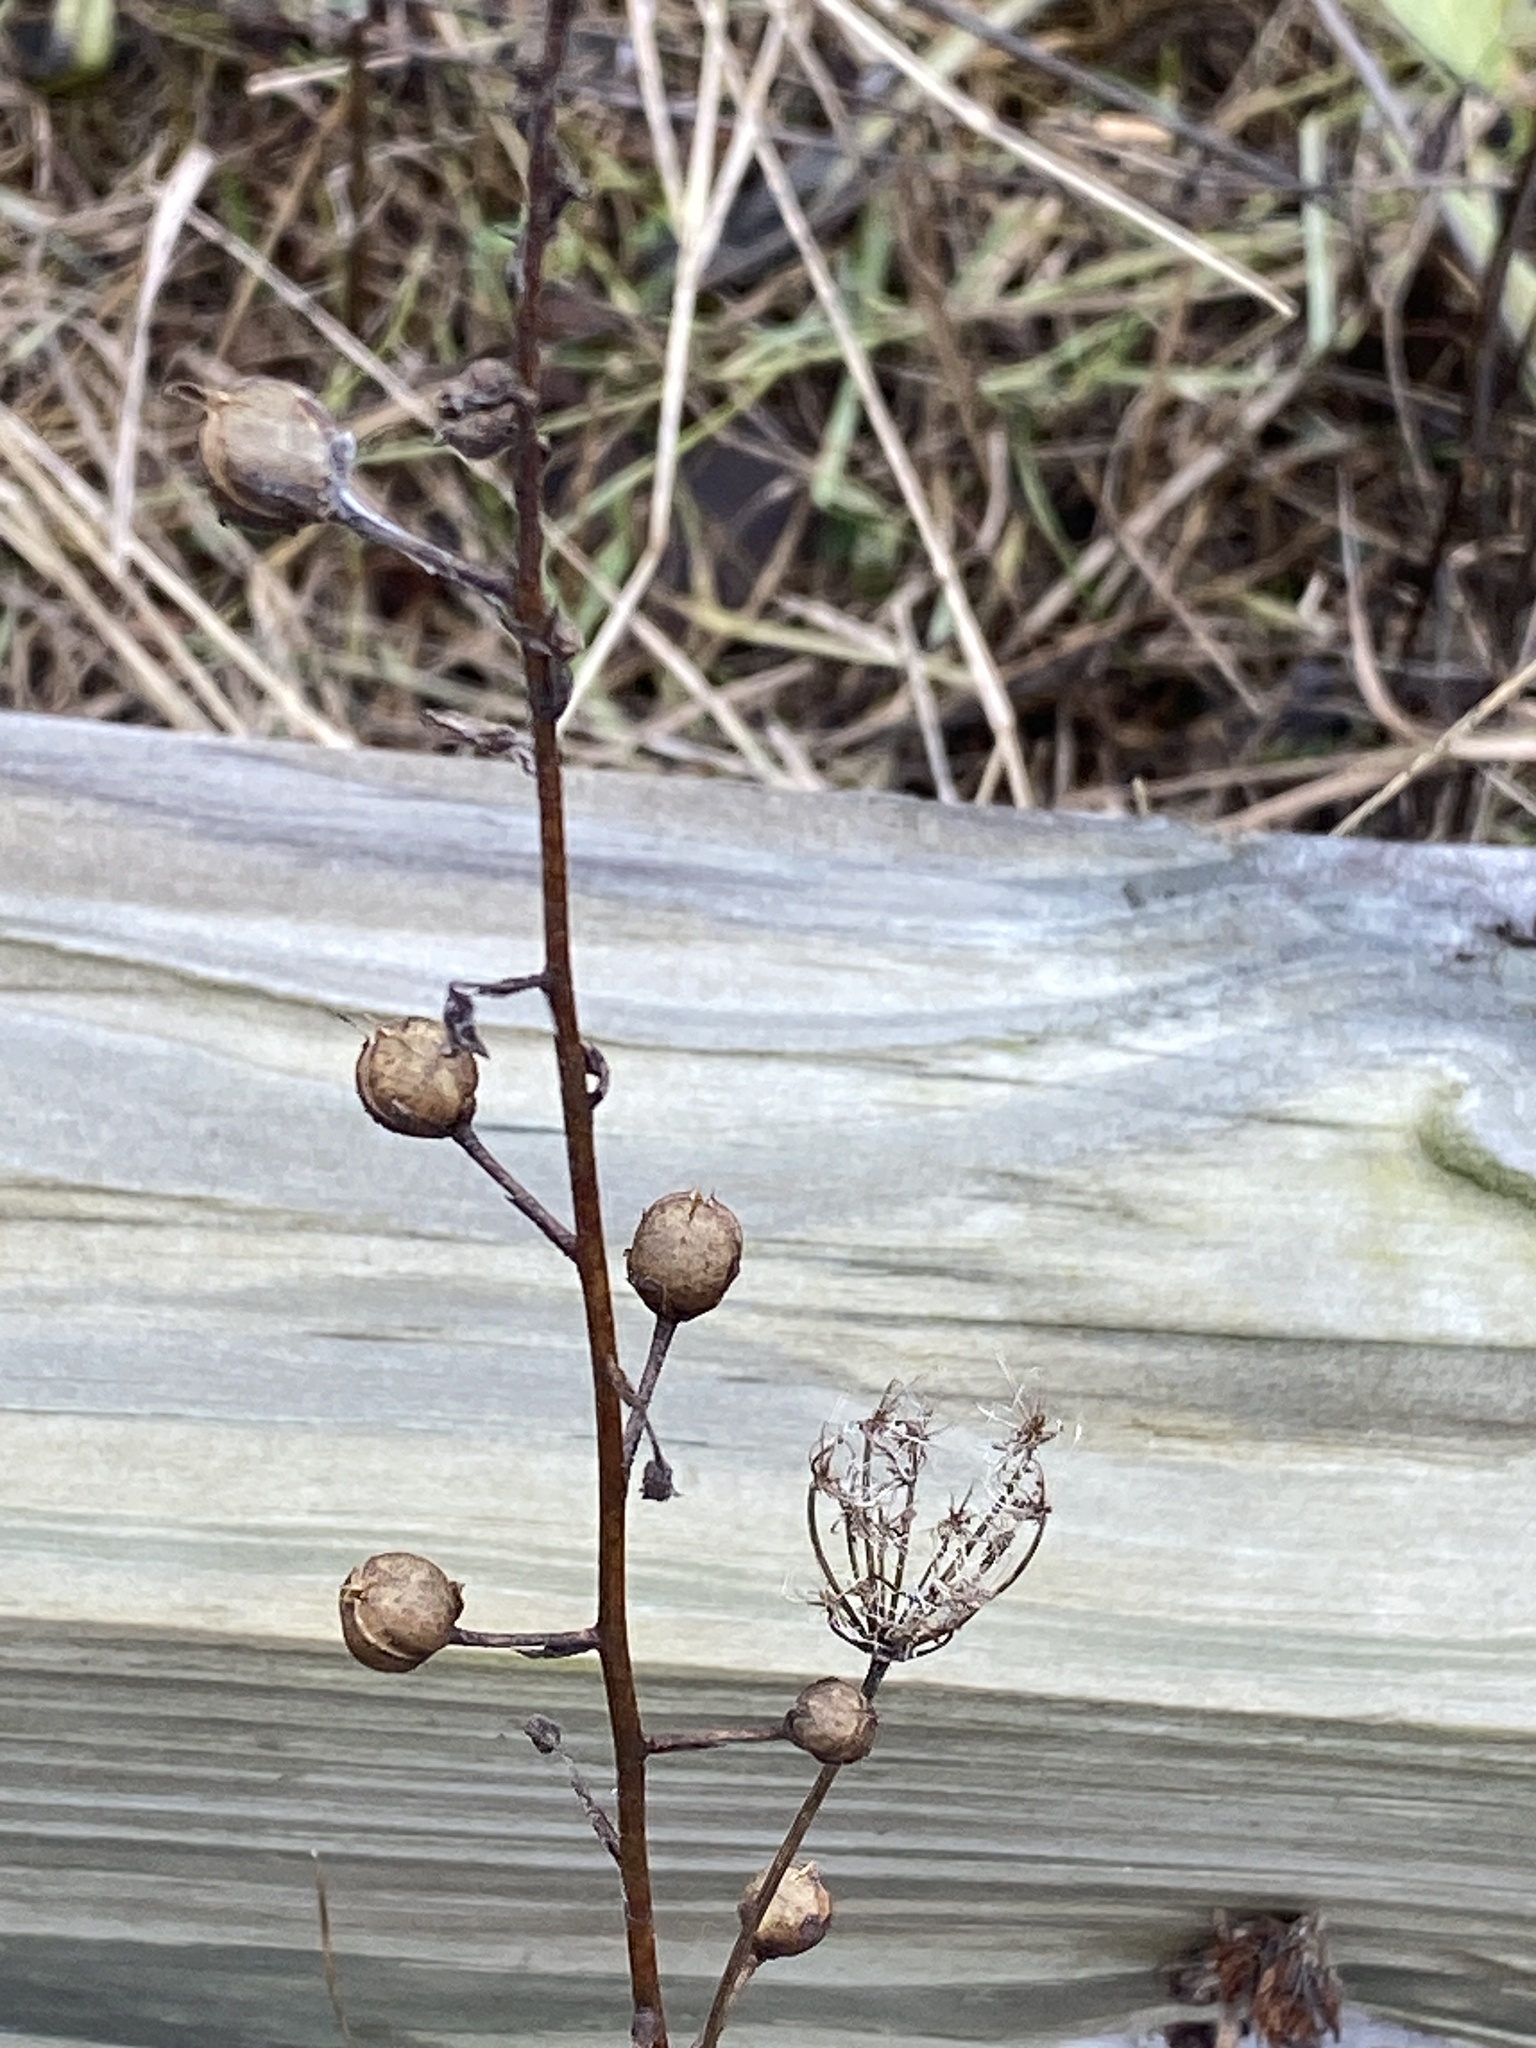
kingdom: Plantae
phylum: Tracheophyta
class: Magnoliopsida
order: Lamiales
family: Scrophulariaceae
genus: Verbascum
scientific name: Verbascum blattaria
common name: Moth mullein
